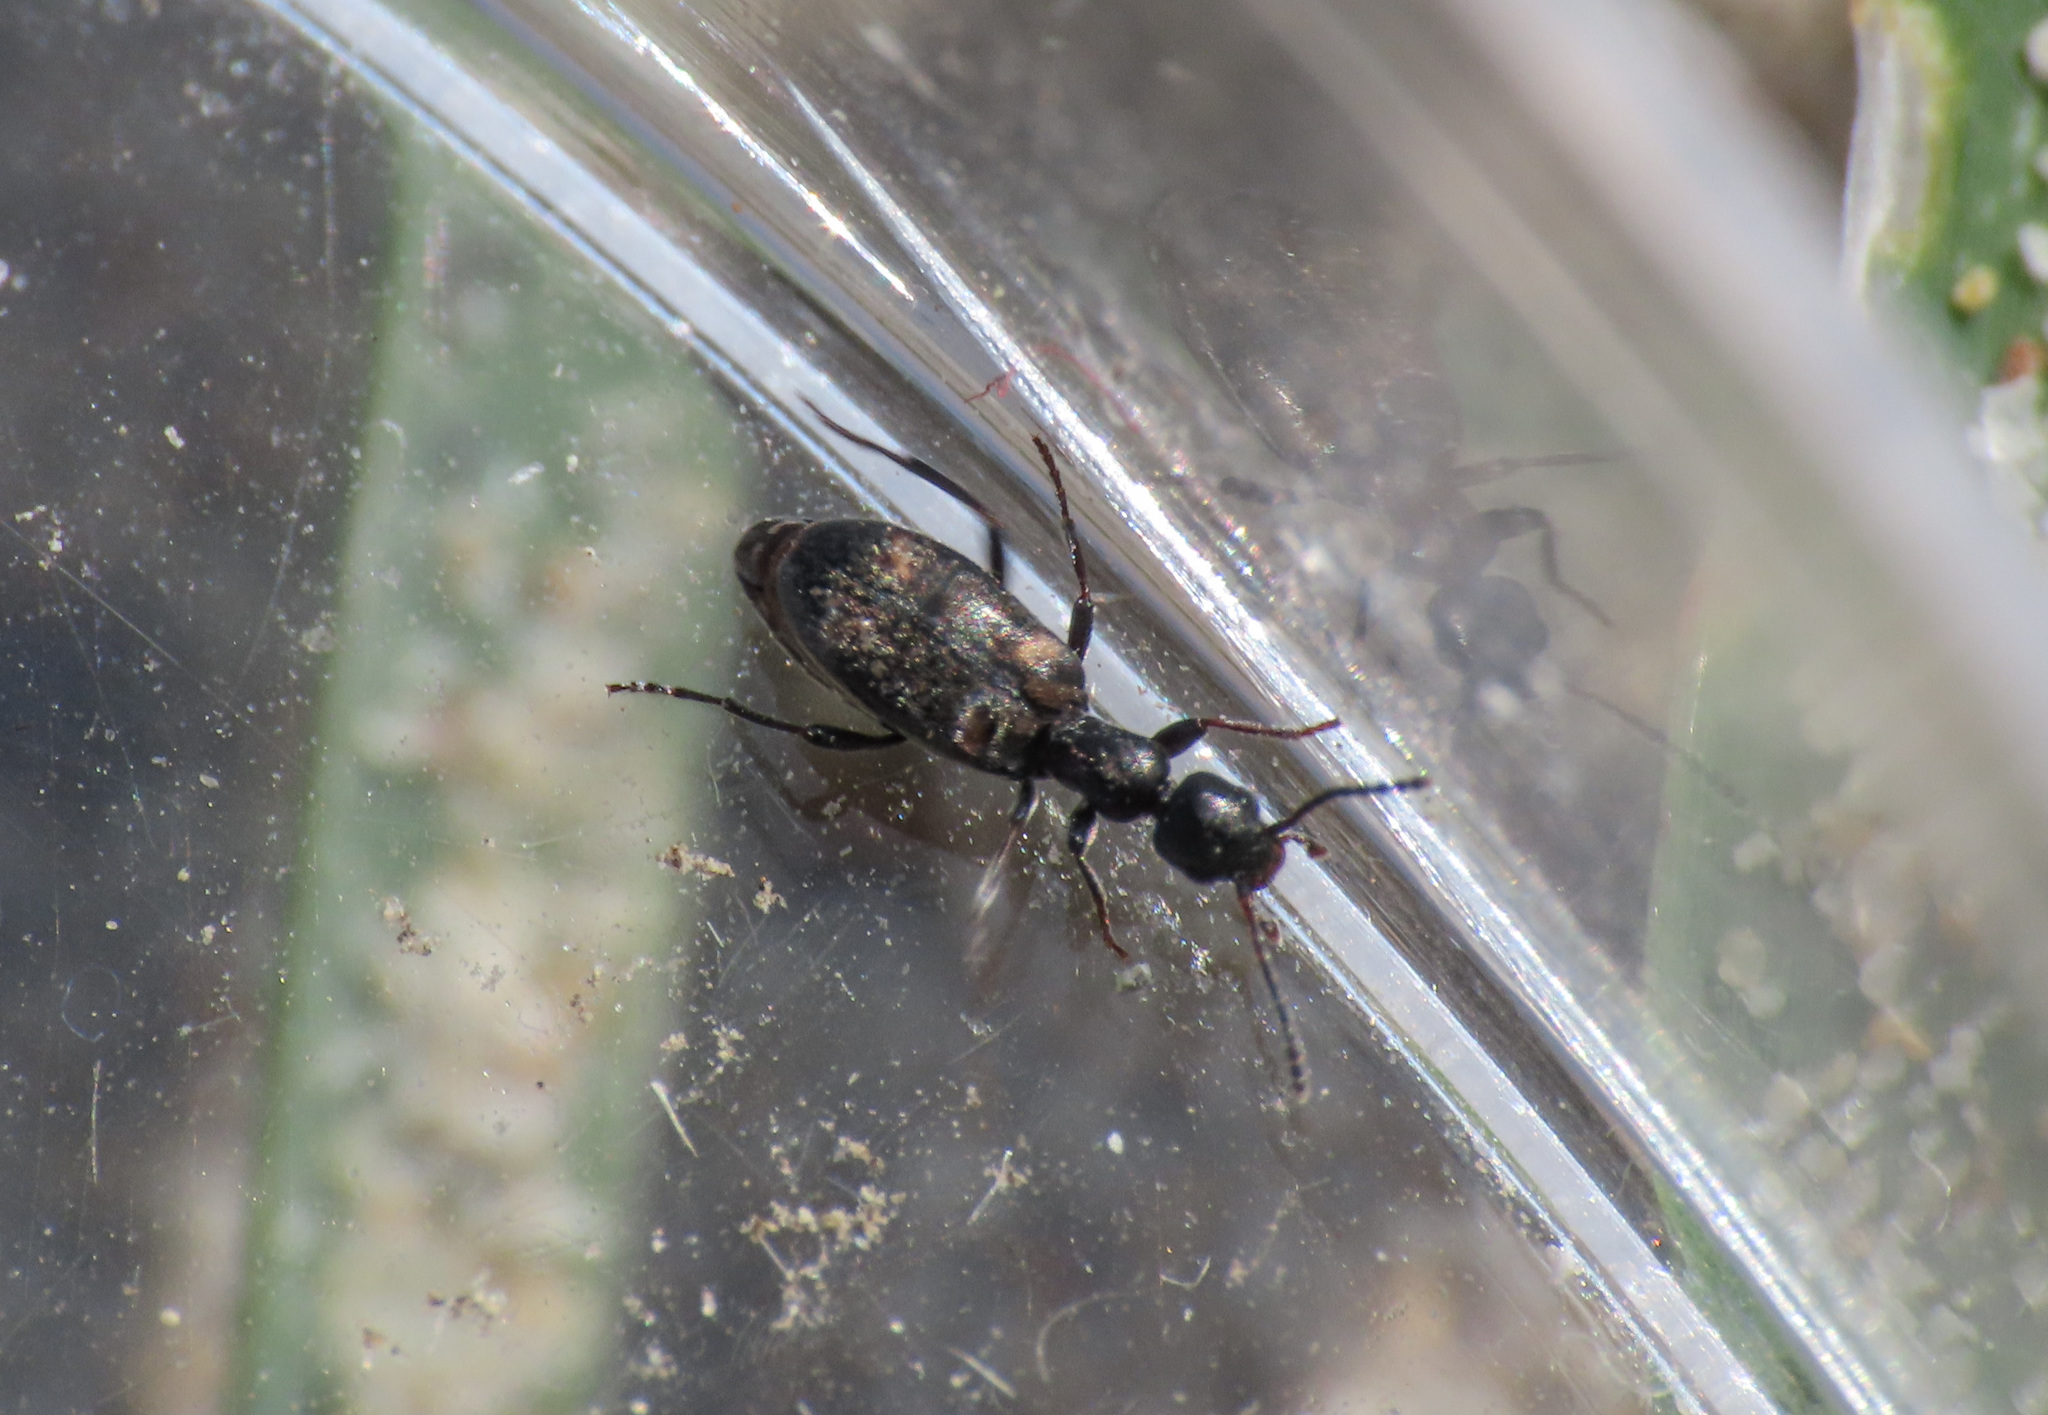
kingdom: Animalia
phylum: Arthropoda
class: Insecta
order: Coleoptera
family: Anthicidae
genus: Stricticollis
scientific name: Stricticollis transversalis
